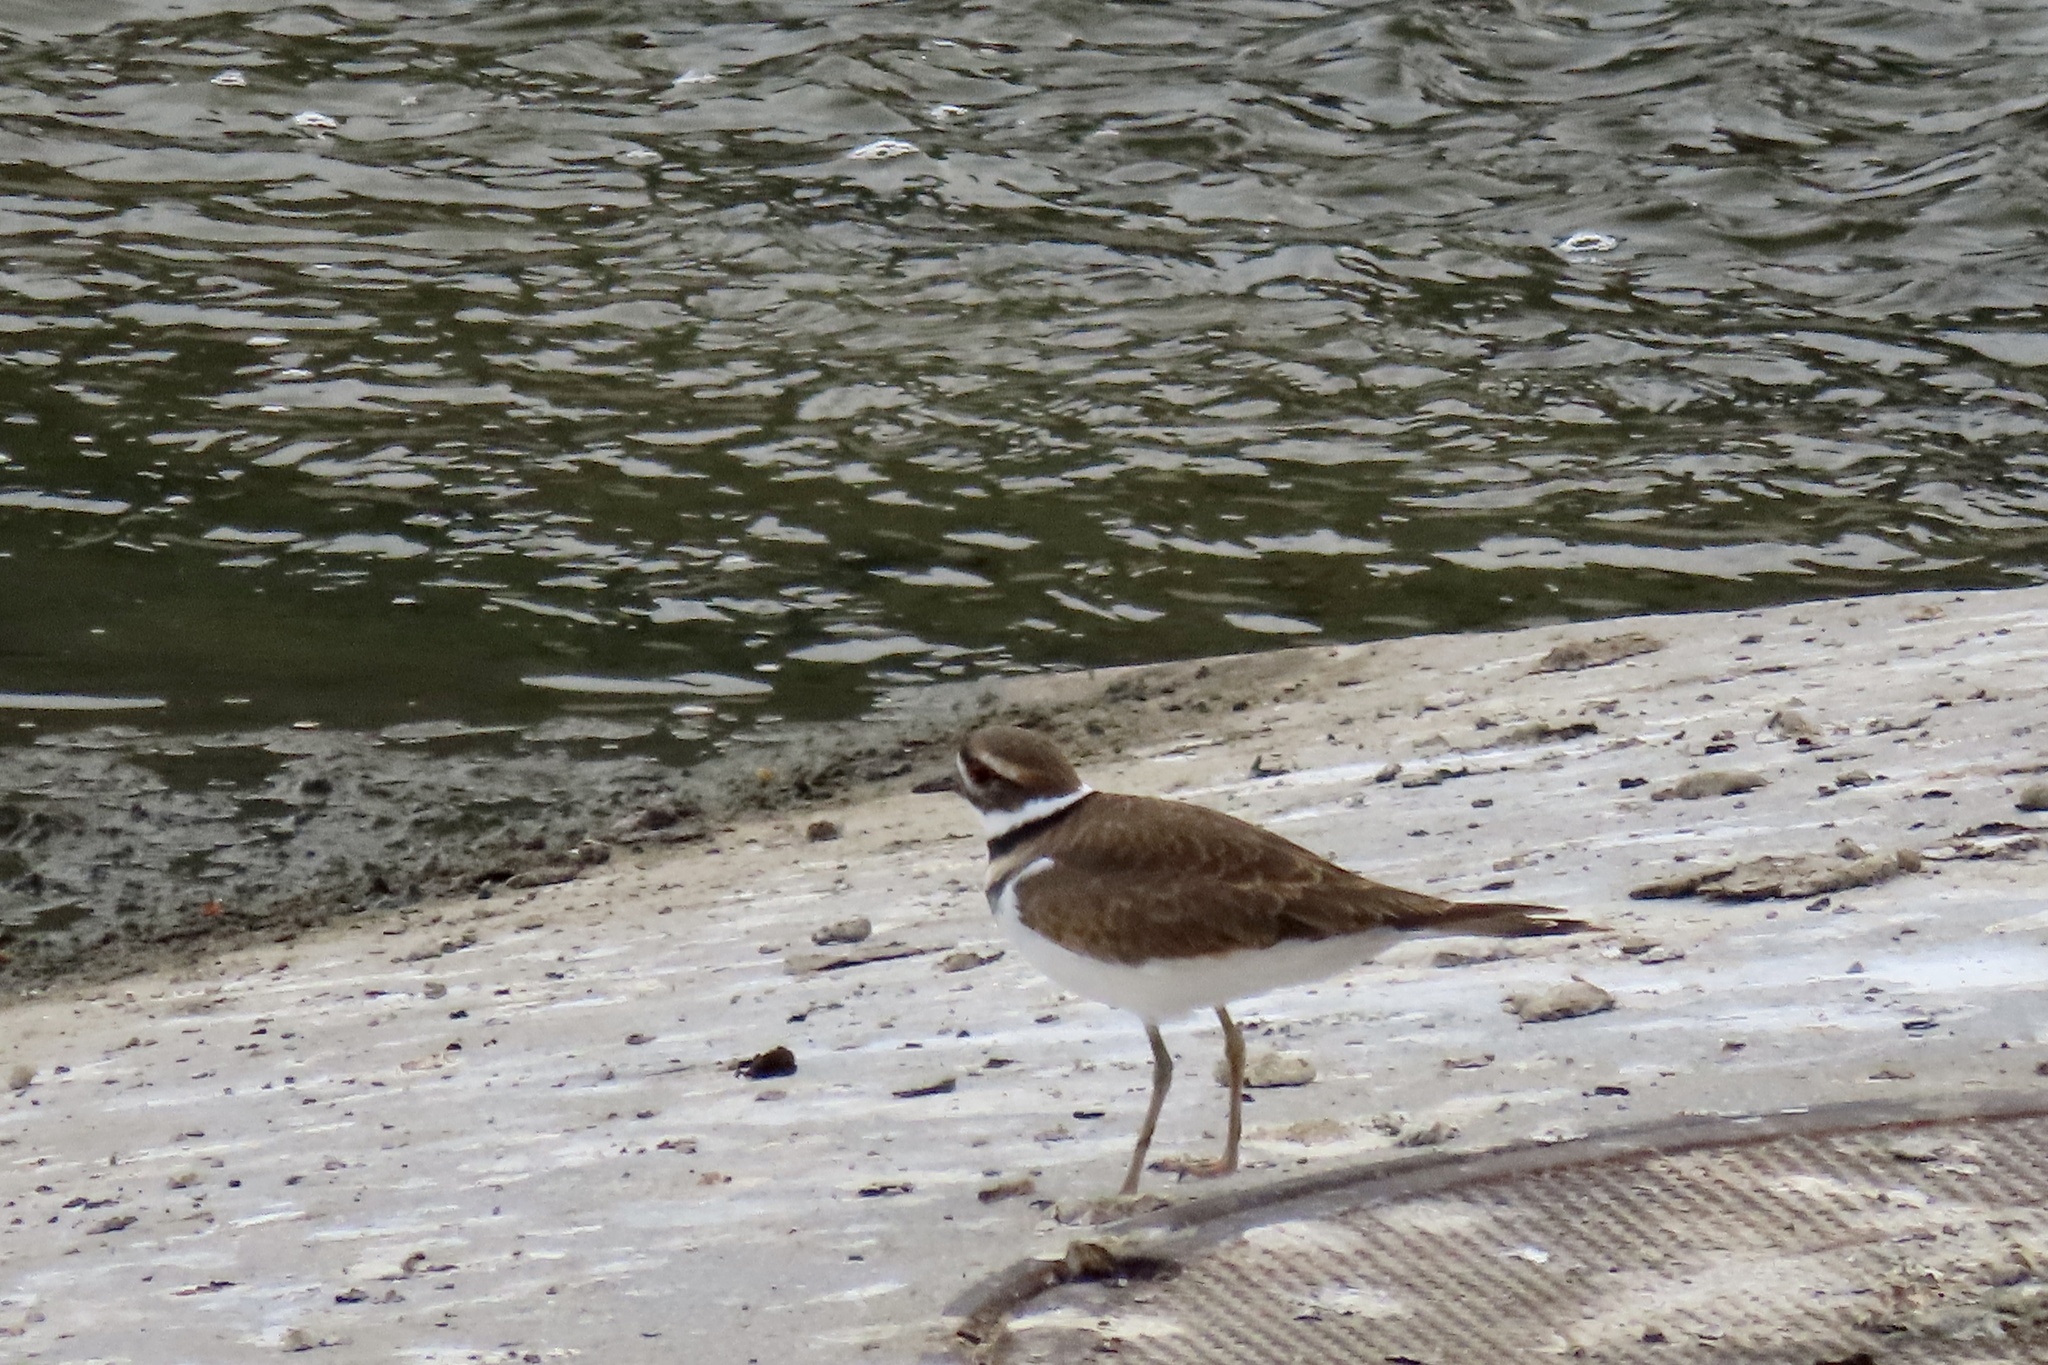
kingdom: Animalia
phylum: Chordata
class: Aves
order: Charadriiformes
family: Charadriidae
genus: Charadrius
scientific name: Charadrius vociferus
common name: Killdeer
